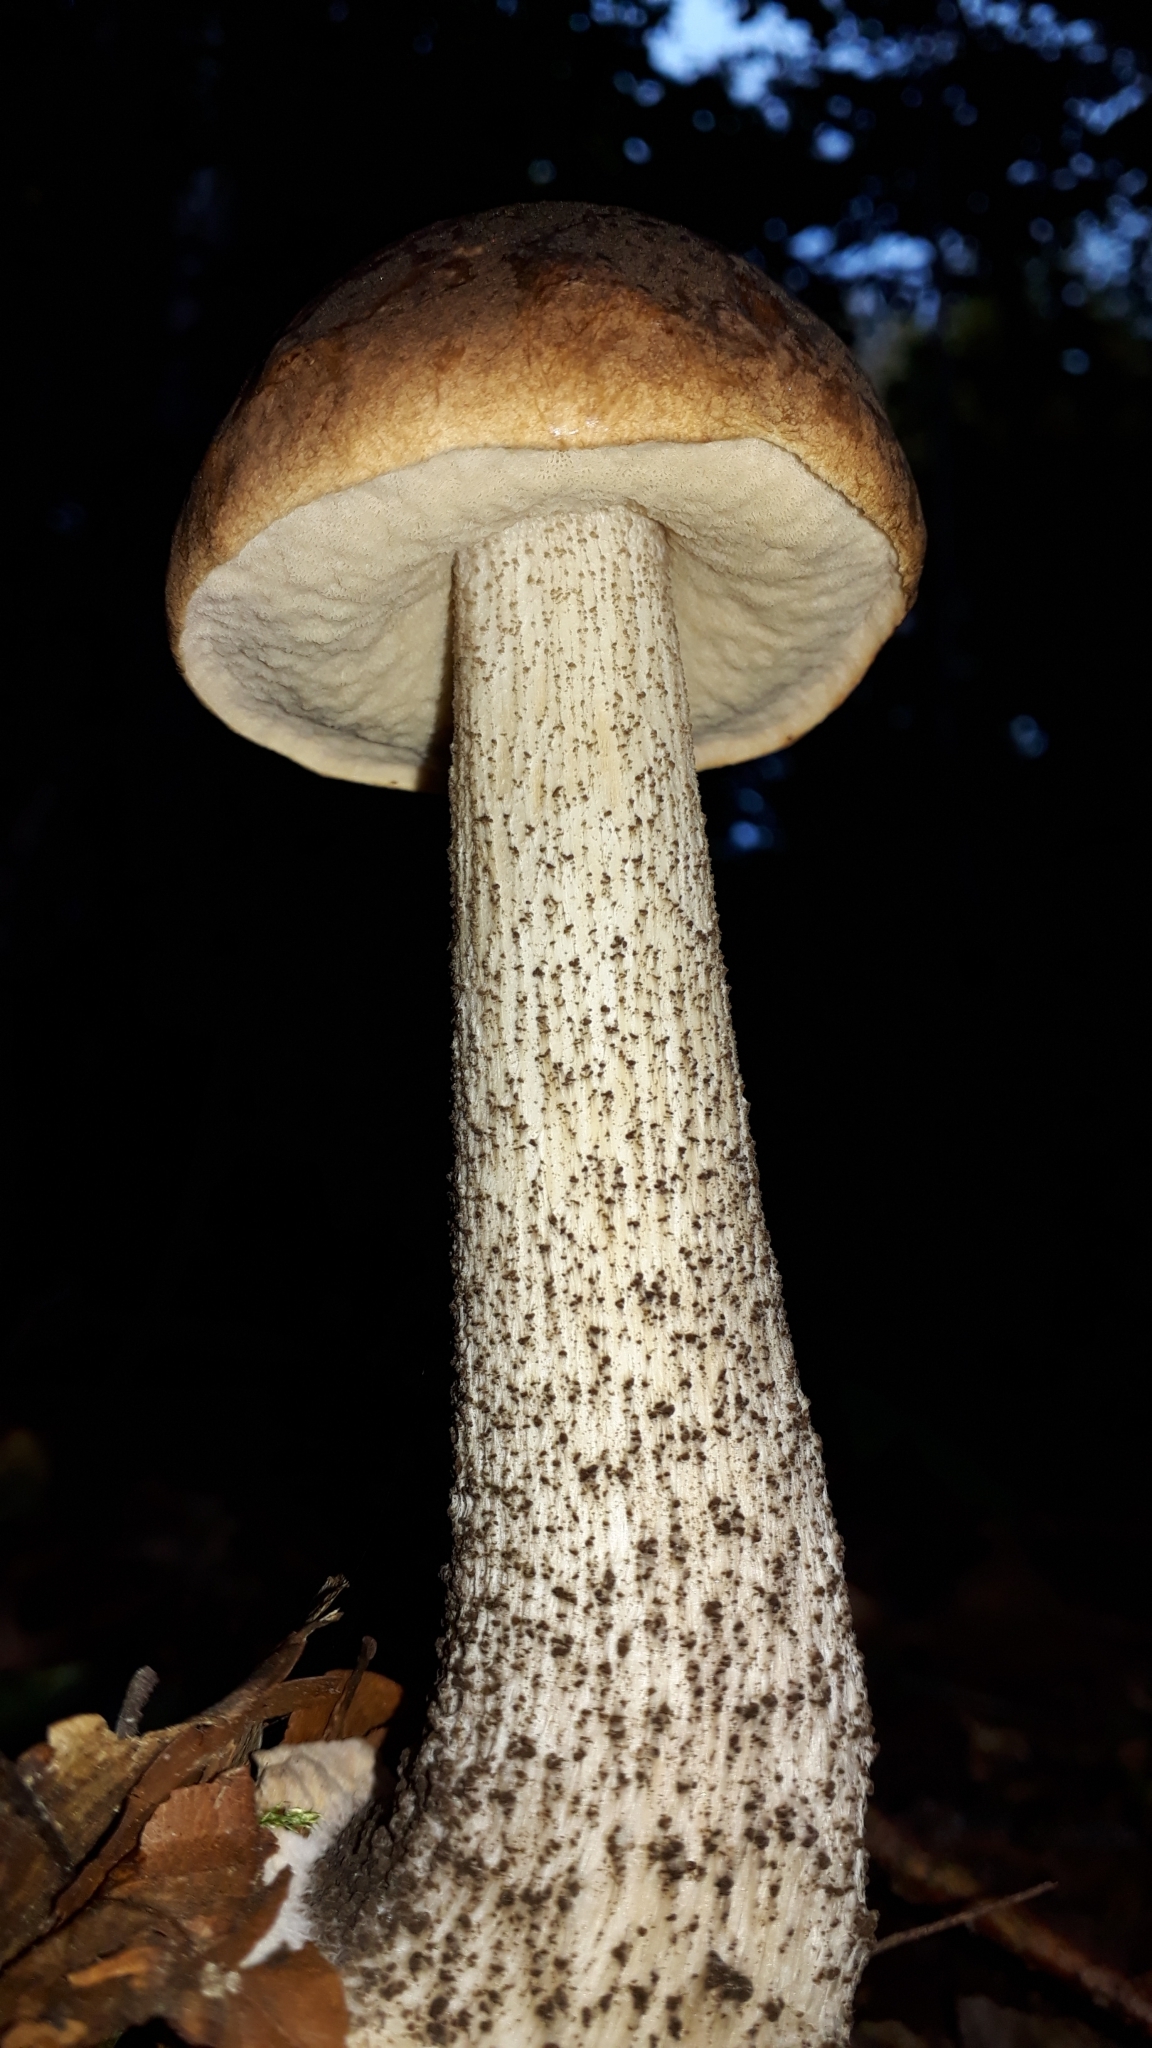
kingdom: Fungi
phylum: Basidiomycota
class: Agaricomycetes
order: Boletales
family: Boletaceae
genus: Leccinum
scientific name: Leccinum scabrum
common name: Blushing bolete
